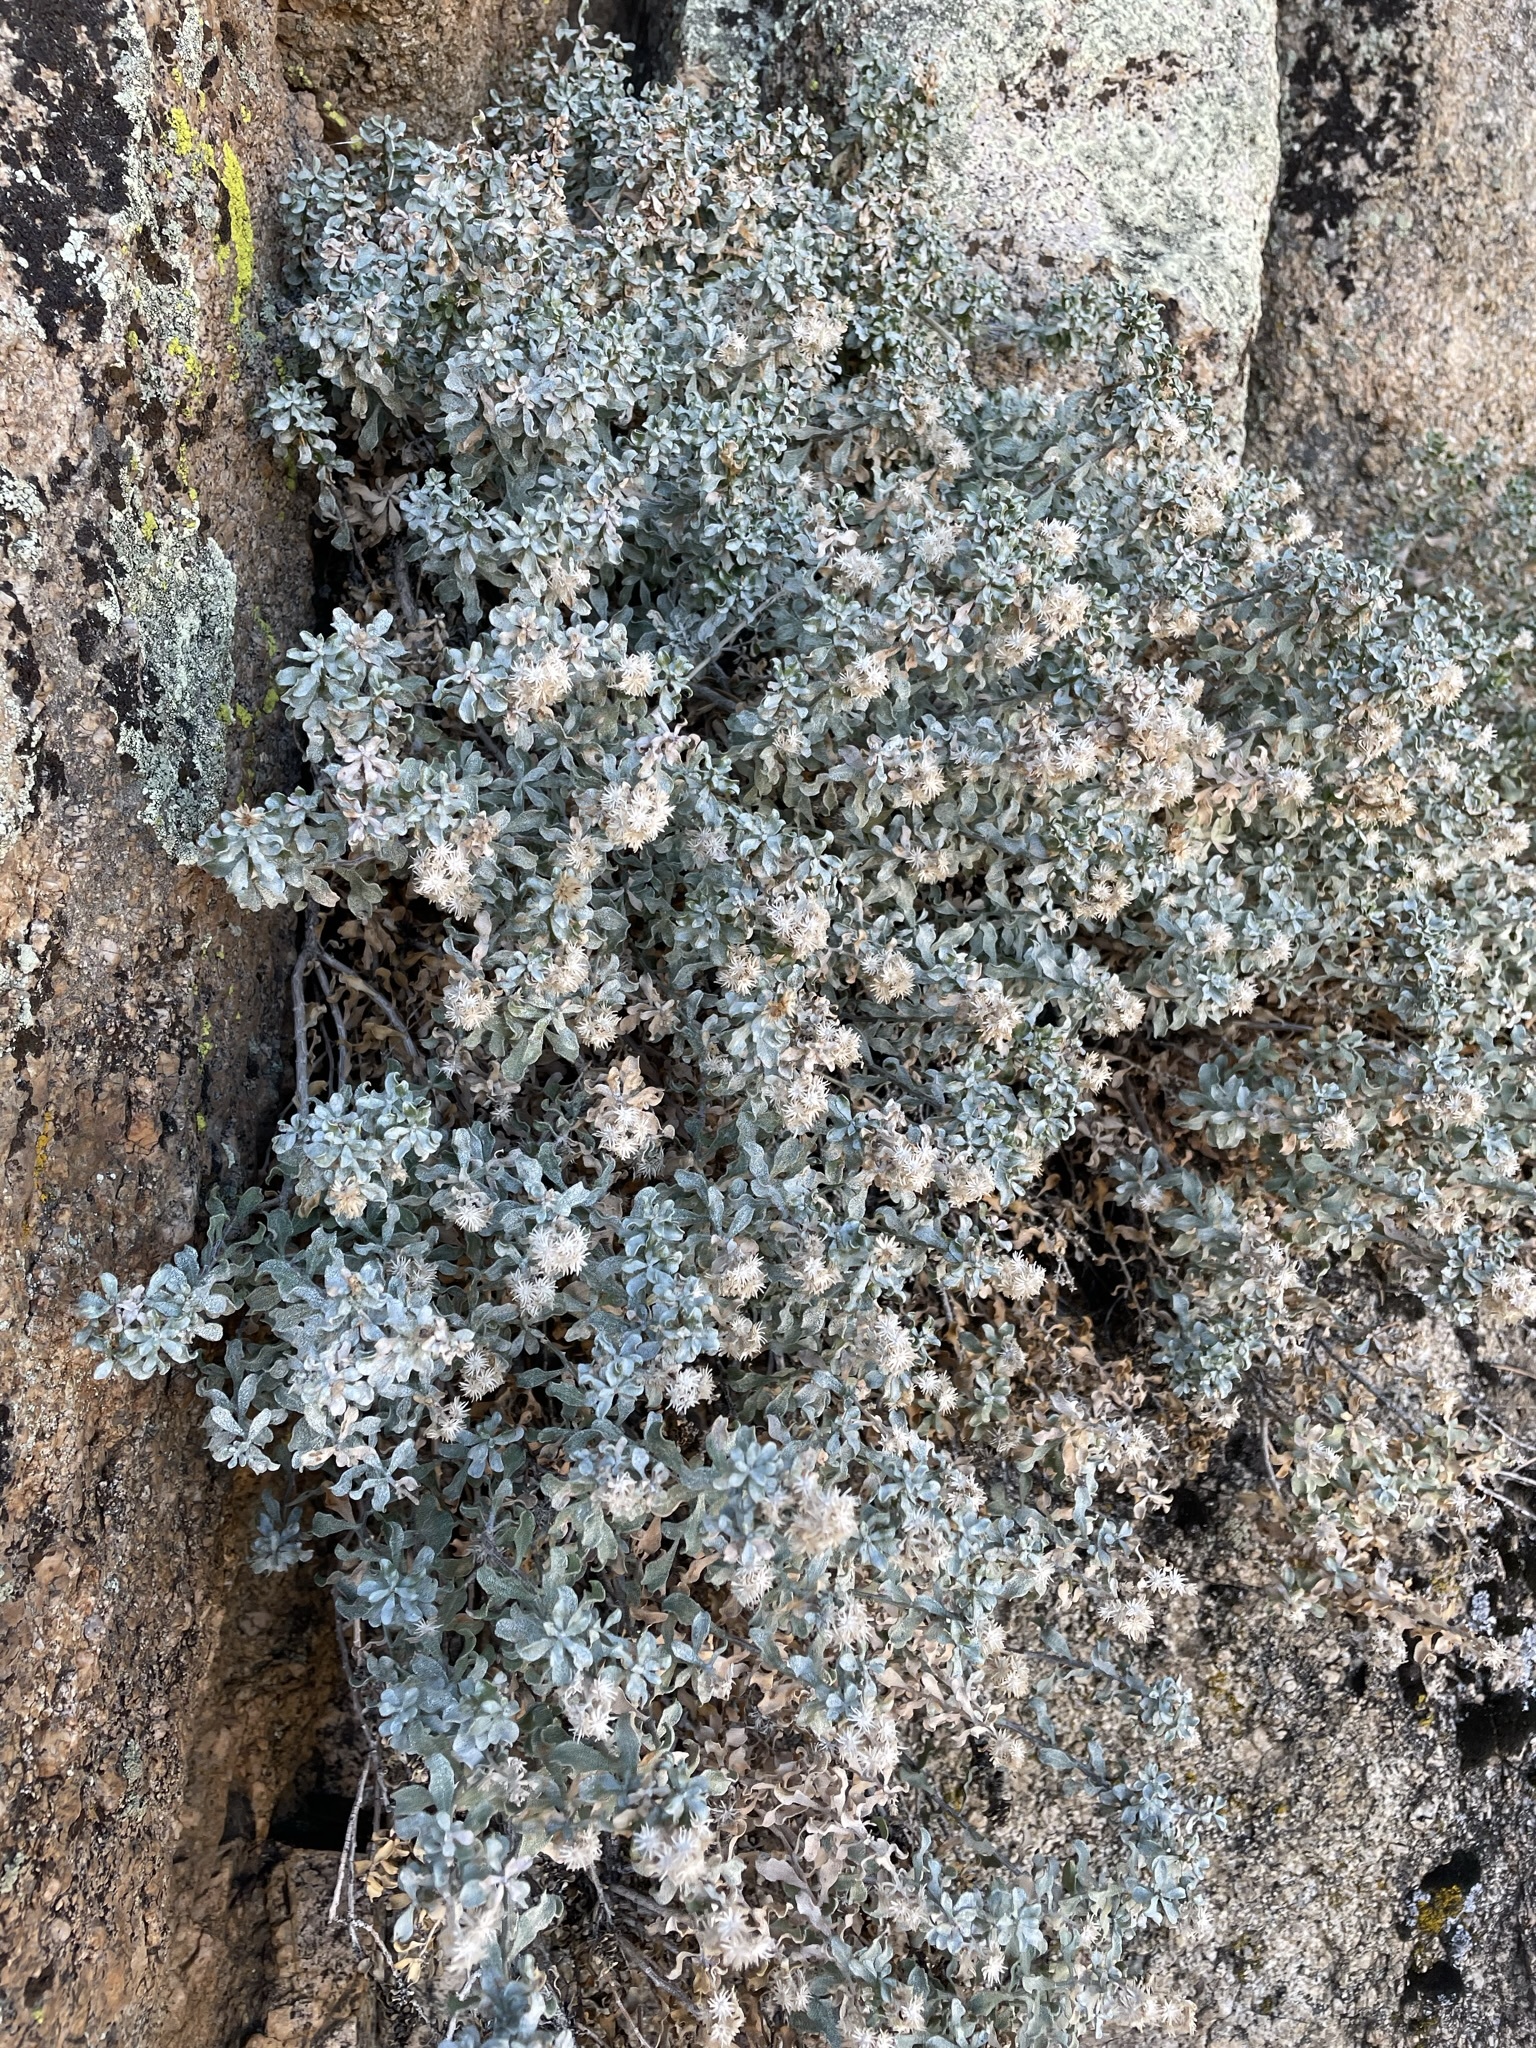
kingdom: Plantae
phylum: Tracheophyta
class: Magnoliopsida
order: Asterales
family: Asteraceae
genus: Ericameria
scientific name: Ericameria cuneata
